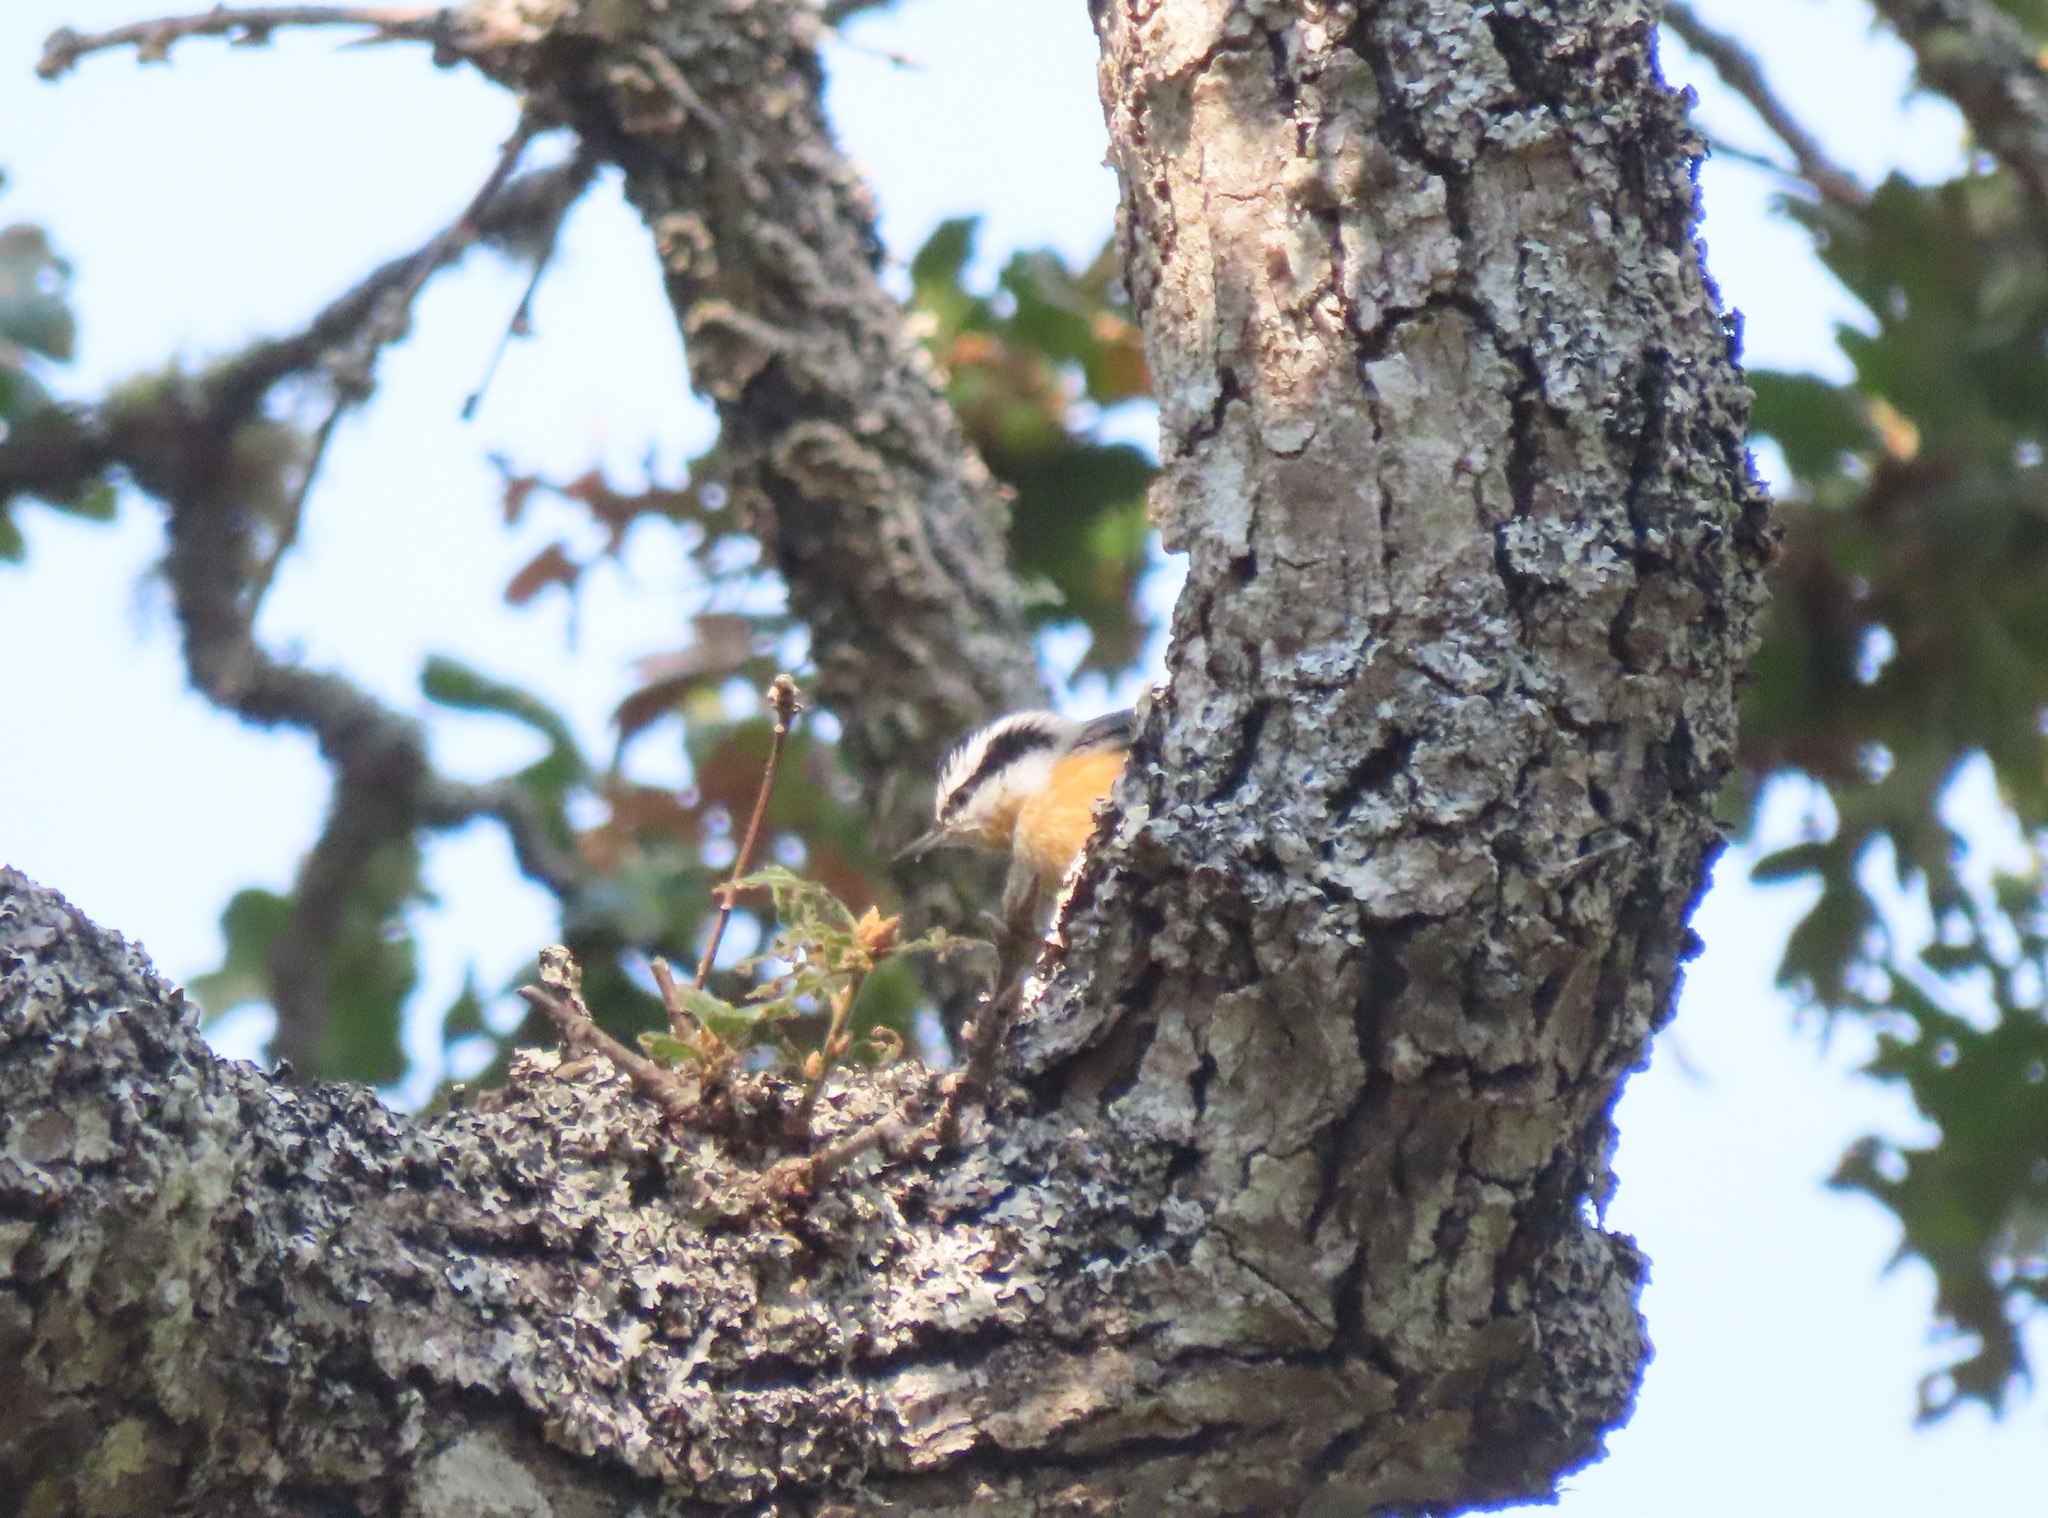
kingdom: Animalia
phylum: Chordata
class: Aves
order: Passeriformes
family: Sittidae
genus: Sitta
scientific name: Sitta canadensis
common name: Red-breasted nuthatch
